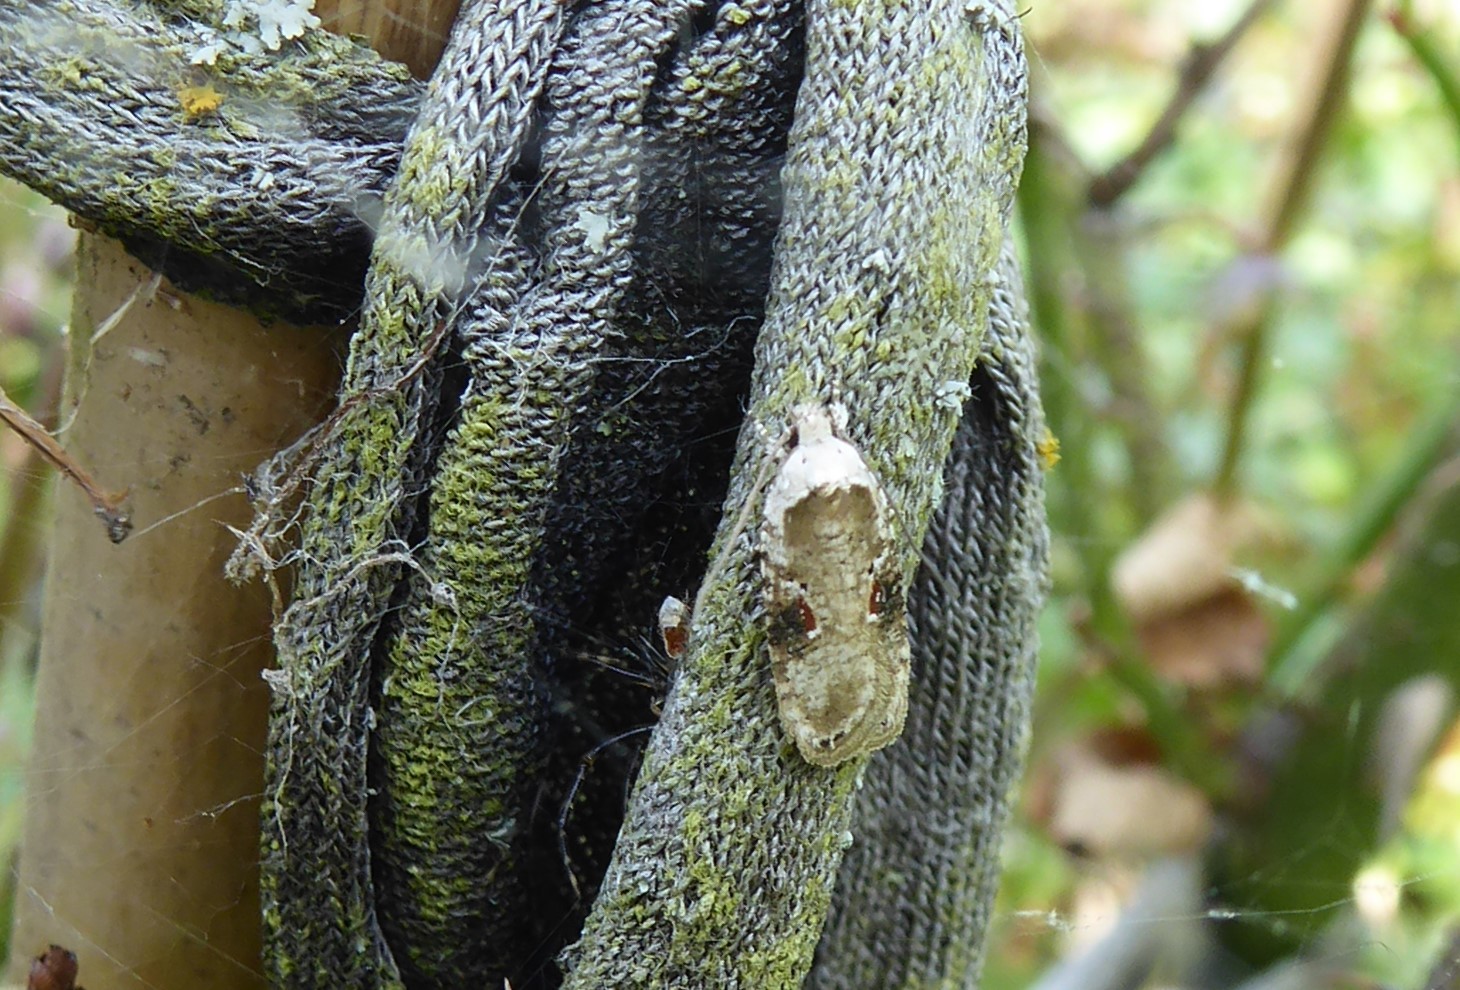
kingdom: Animalia
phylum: Arthropoda
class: Insecta
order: Lepidoptera
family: Depressariidae
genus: Agonopterix
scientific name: Agonopterix alstroemeriana
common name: Moth
